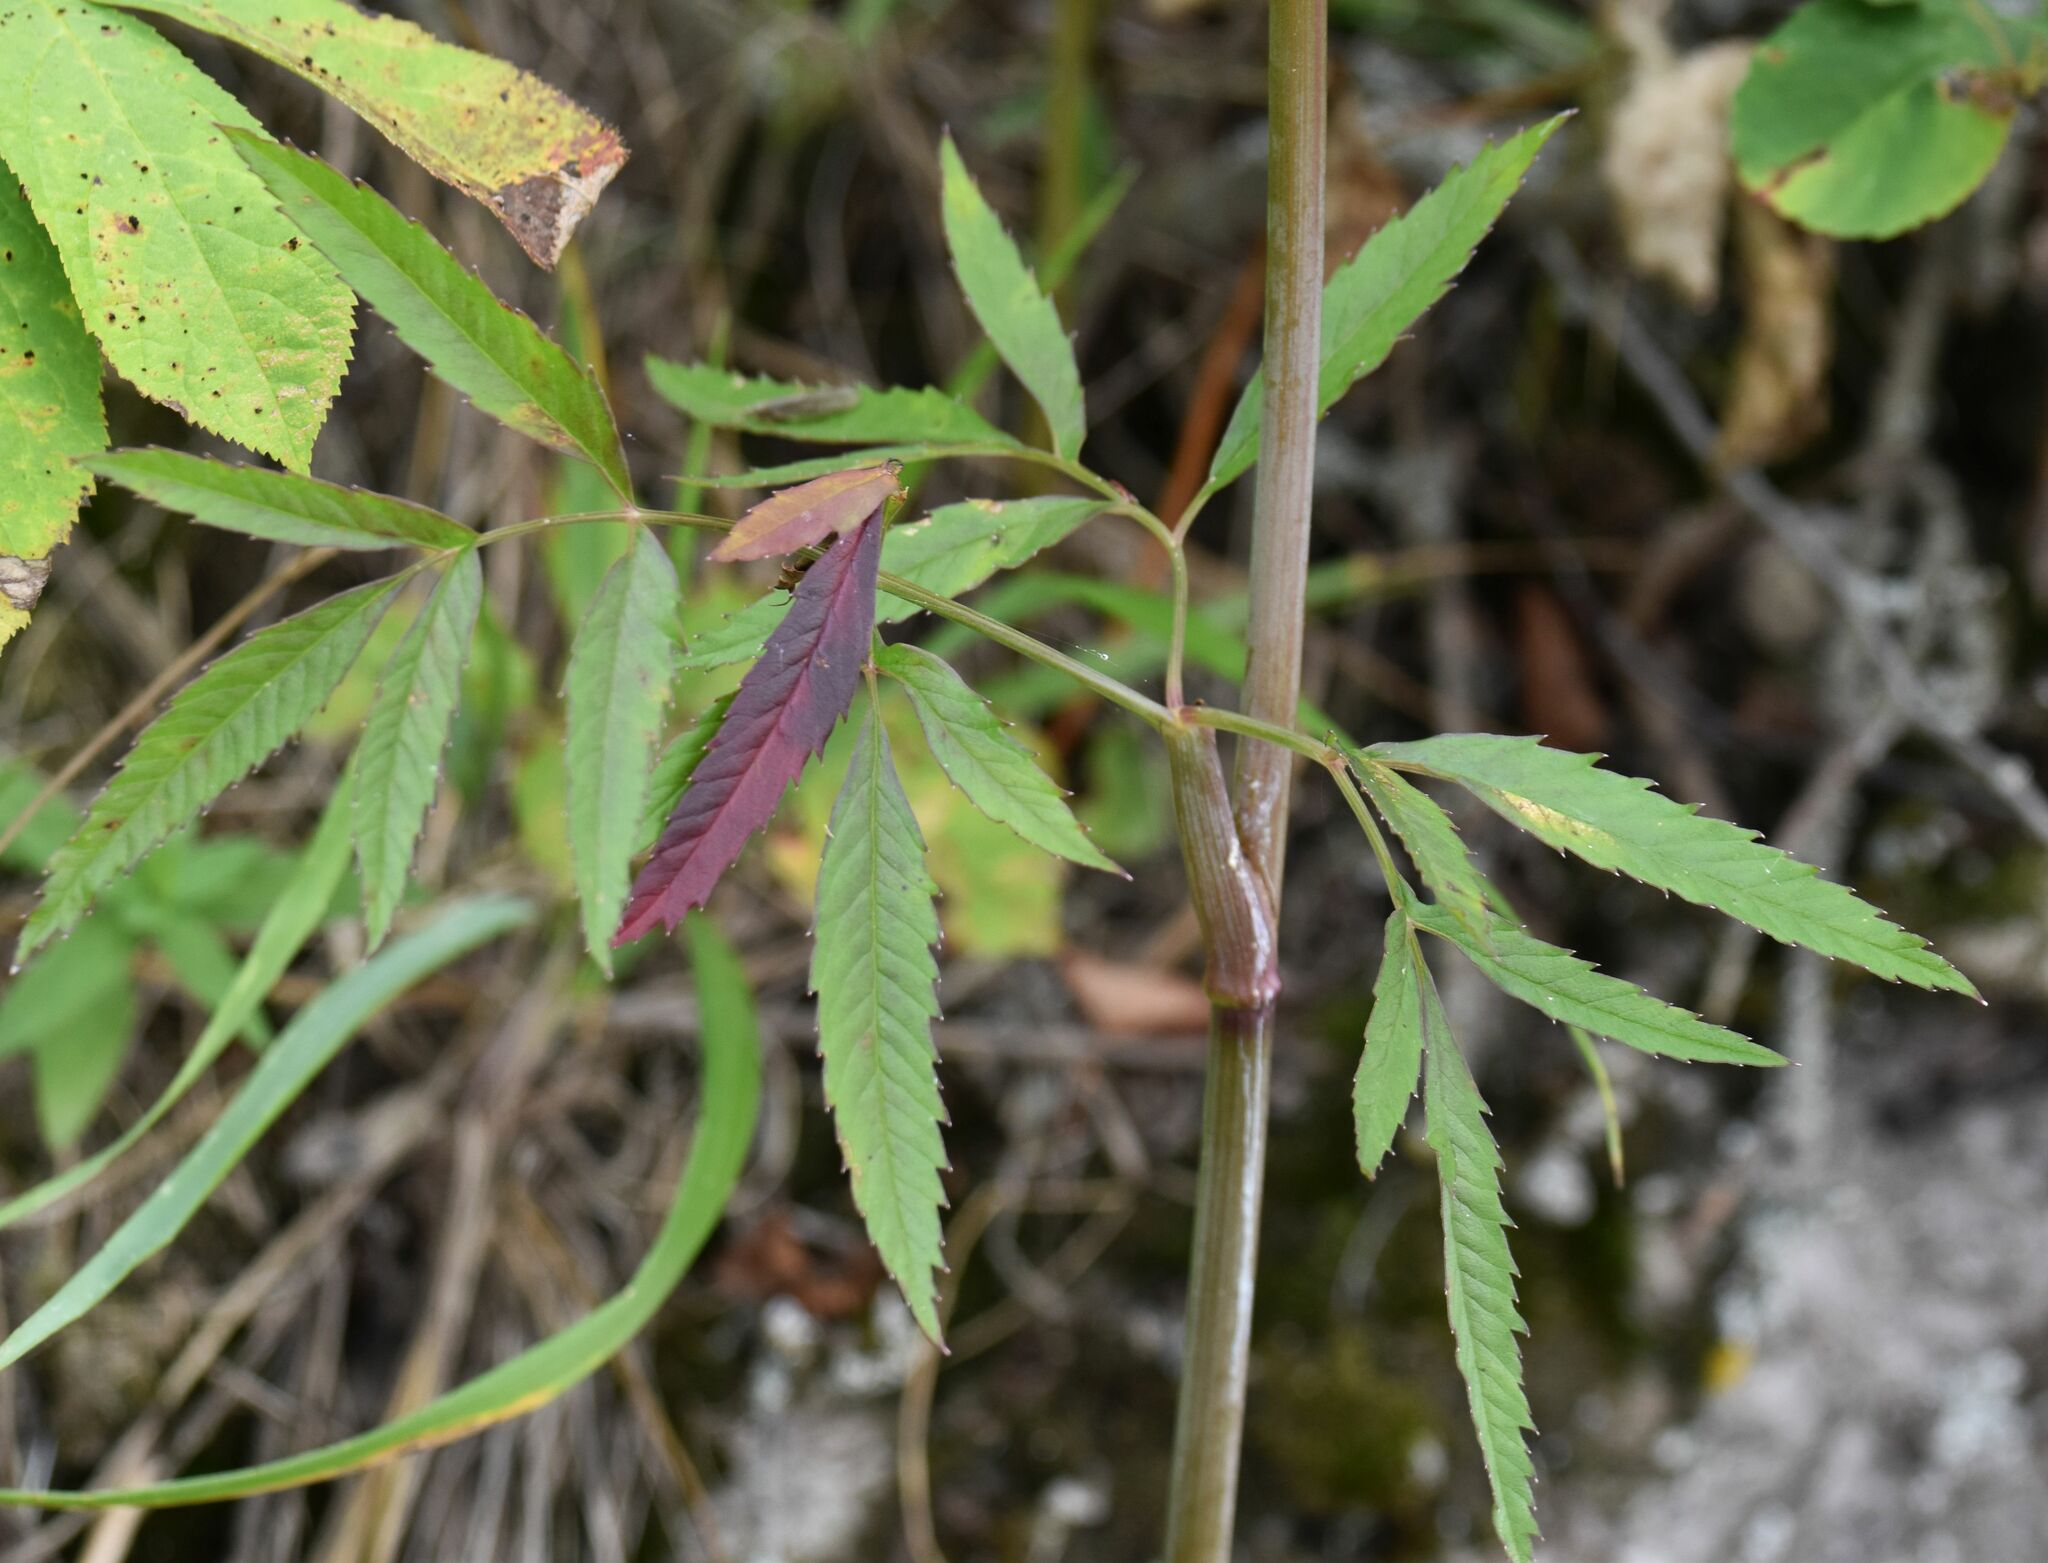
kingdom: Plantae
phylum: Tracheophyta
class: Magnoliopsida
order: Apiales
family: Apiaceae
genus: Cicuta
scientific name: Cicuta maculata
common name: Spotted cowbane
